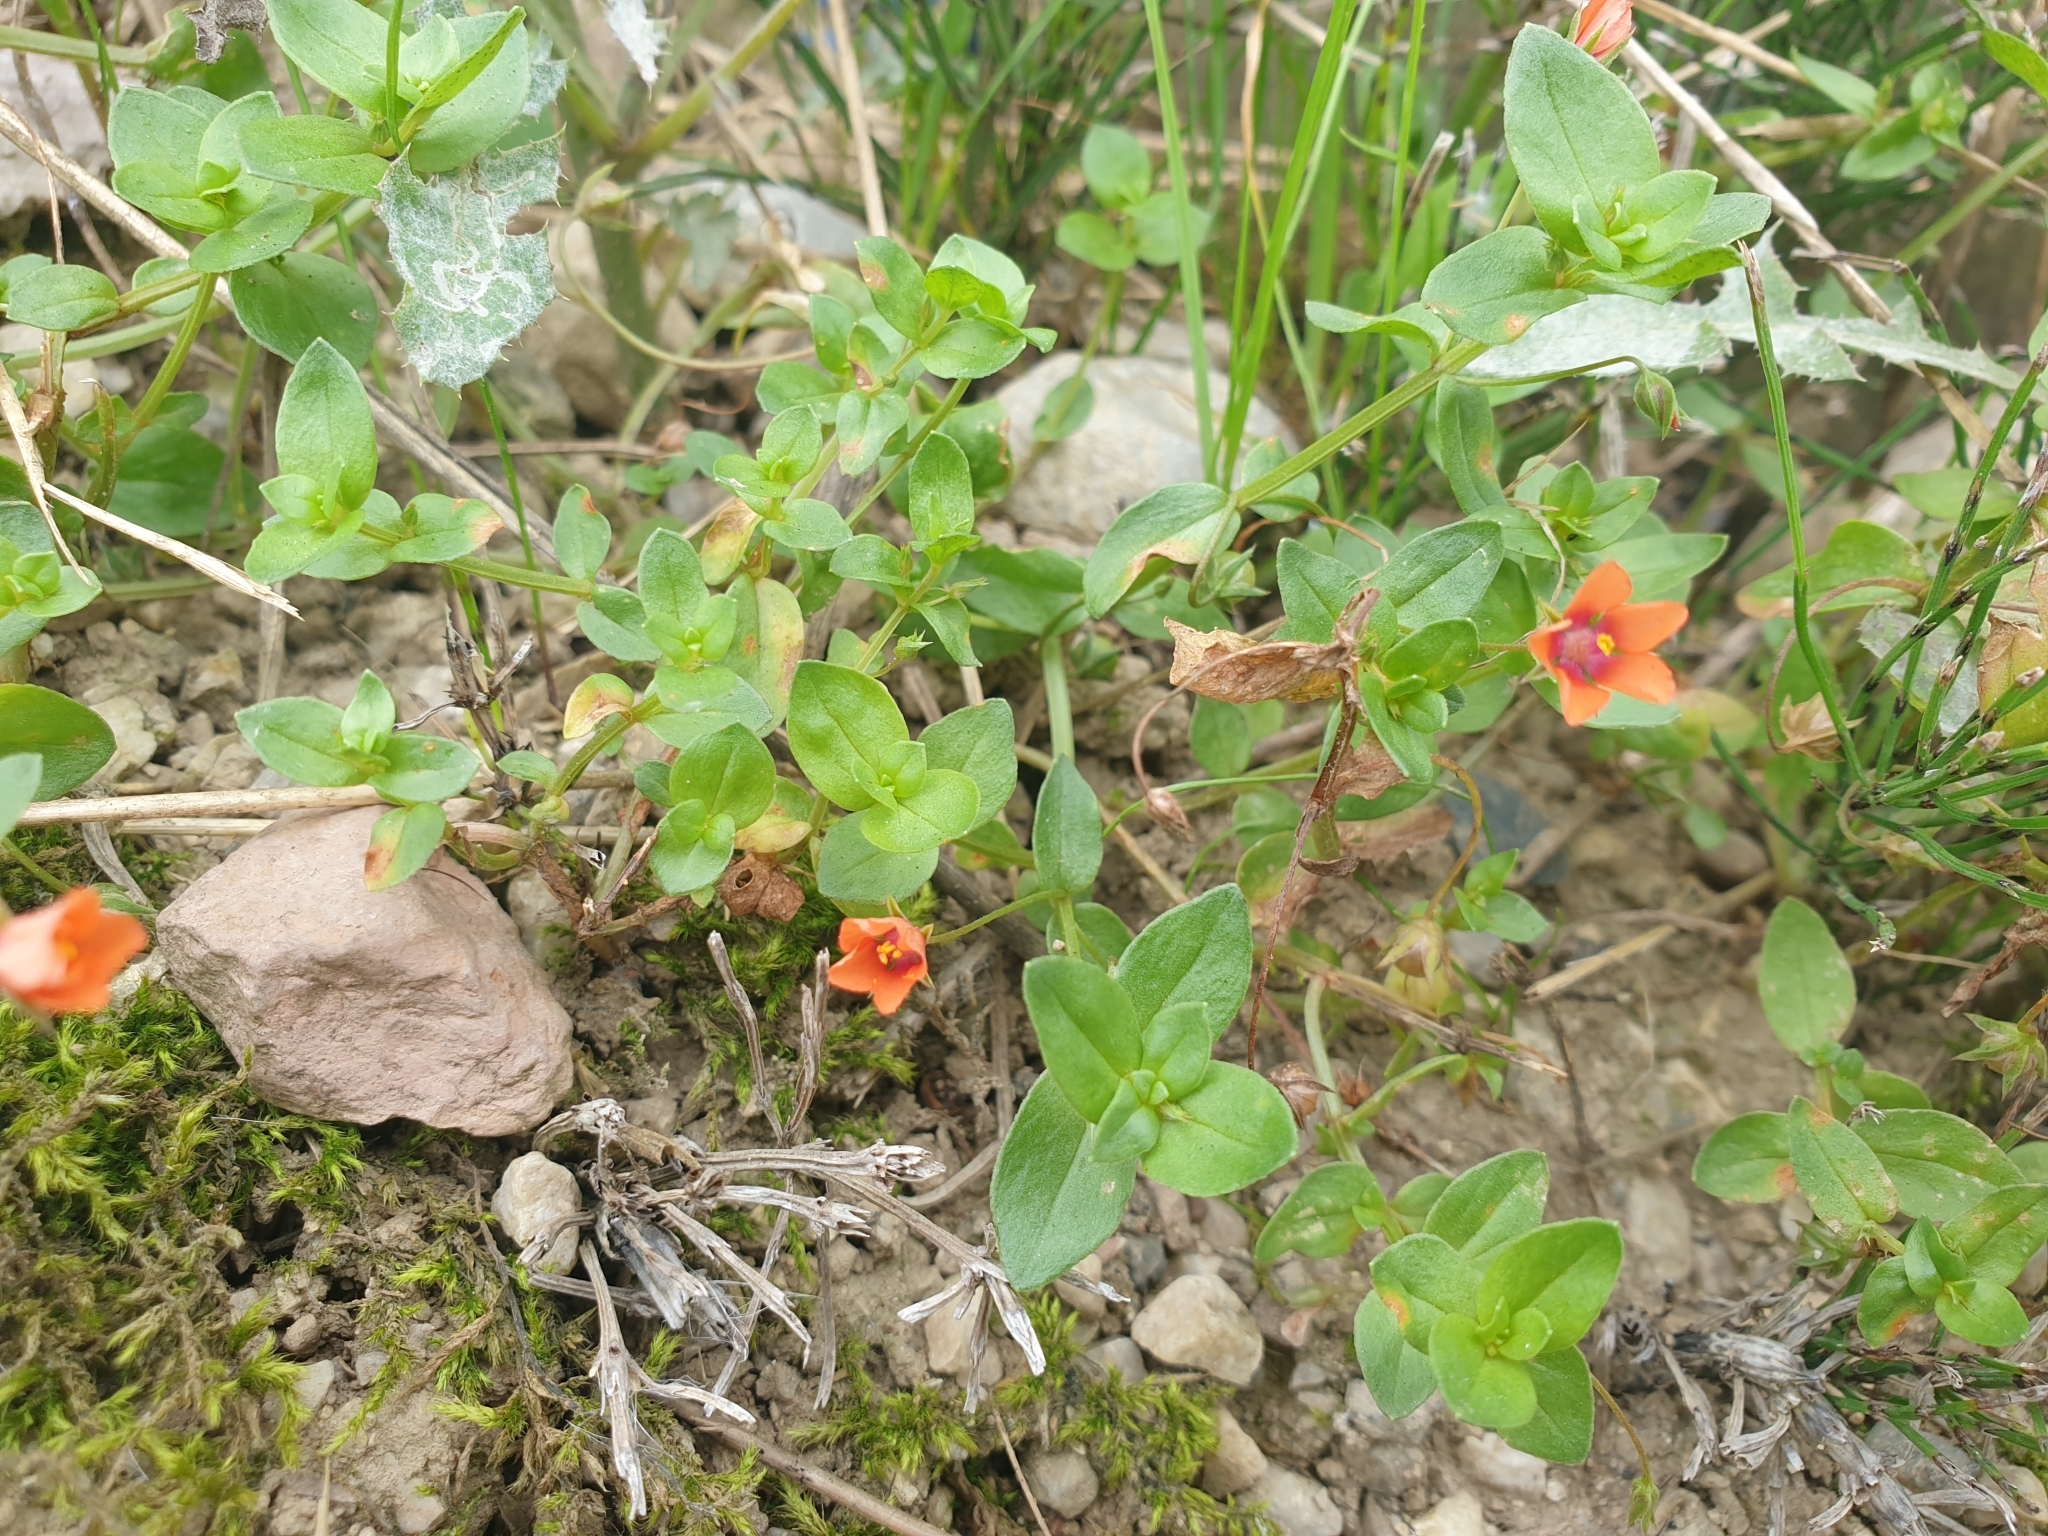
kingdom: Plantae
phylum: Tracheophyta
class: Magnoliopsida
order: Ericales
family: Primulaceae
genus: Lysimachia
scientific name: Lysimachia arvensis
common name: Scarlet pimpernel
